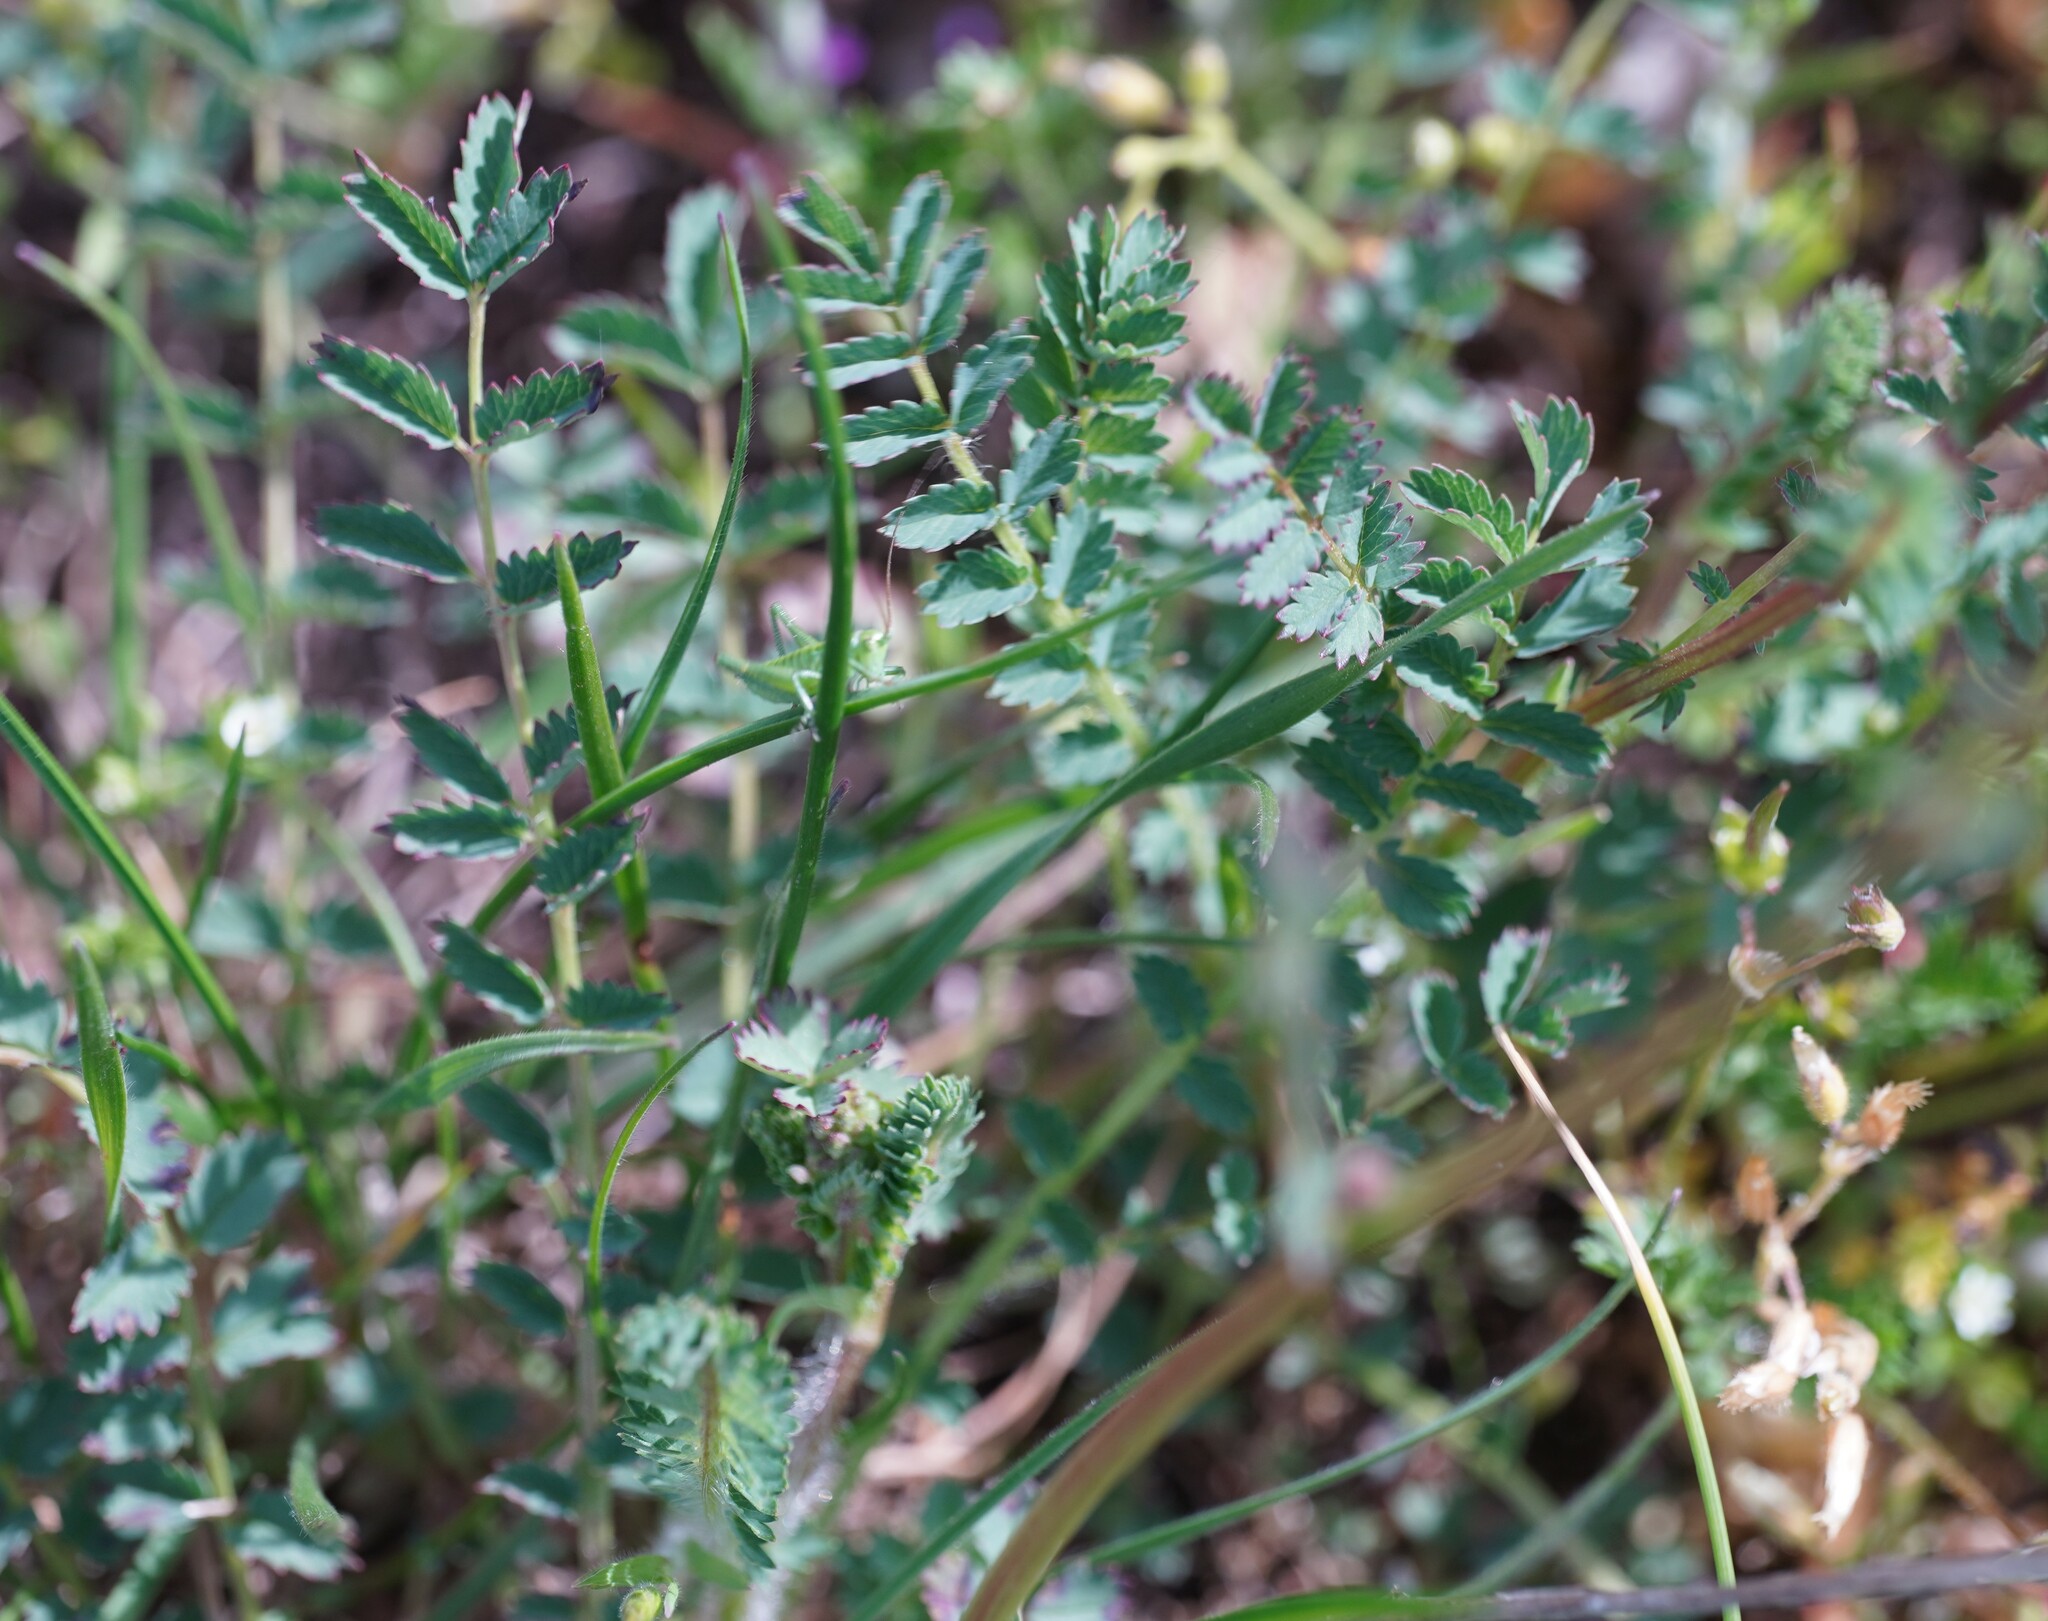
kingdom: Plantae
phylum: Tracheophyta
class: Magnoliopsida
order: Rosales
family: Rosaceae
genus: Poterium
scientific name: Poterium sanguisorba
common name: Salad burnet
